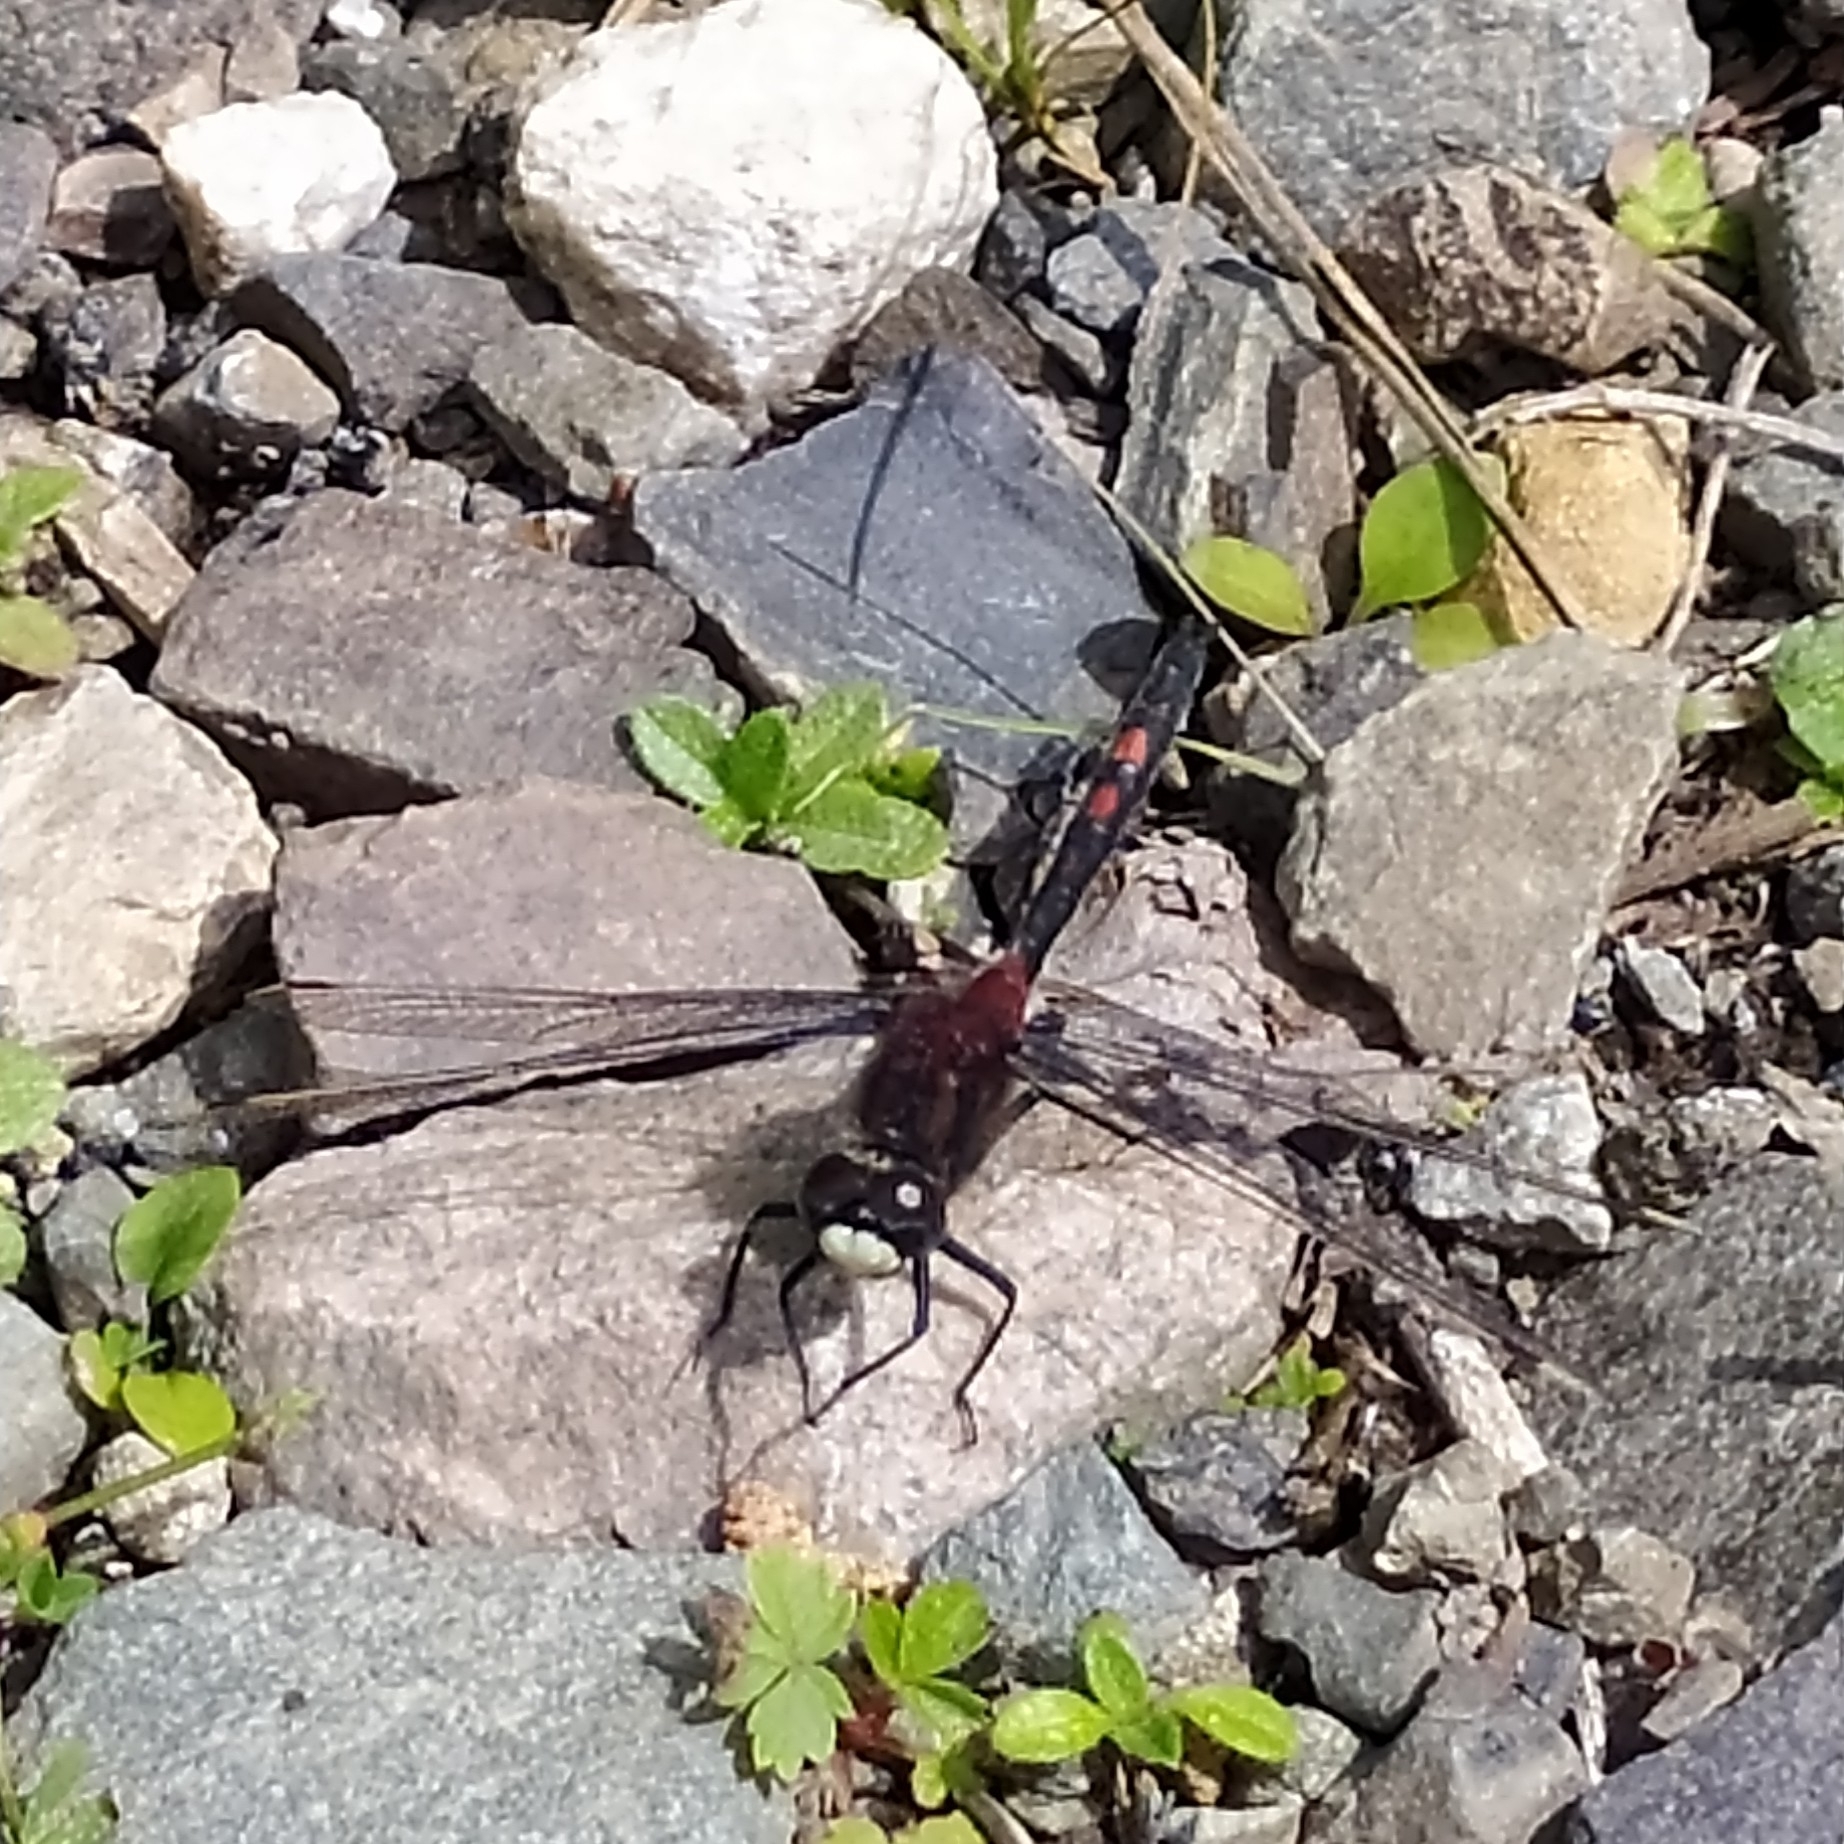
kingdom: Animalia
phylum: Arthropoda
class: Insecta
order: Odonata
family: Libellulidae
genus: Leucorrhinia
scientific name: Leucorrhinia dubia
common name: White-faced darter
